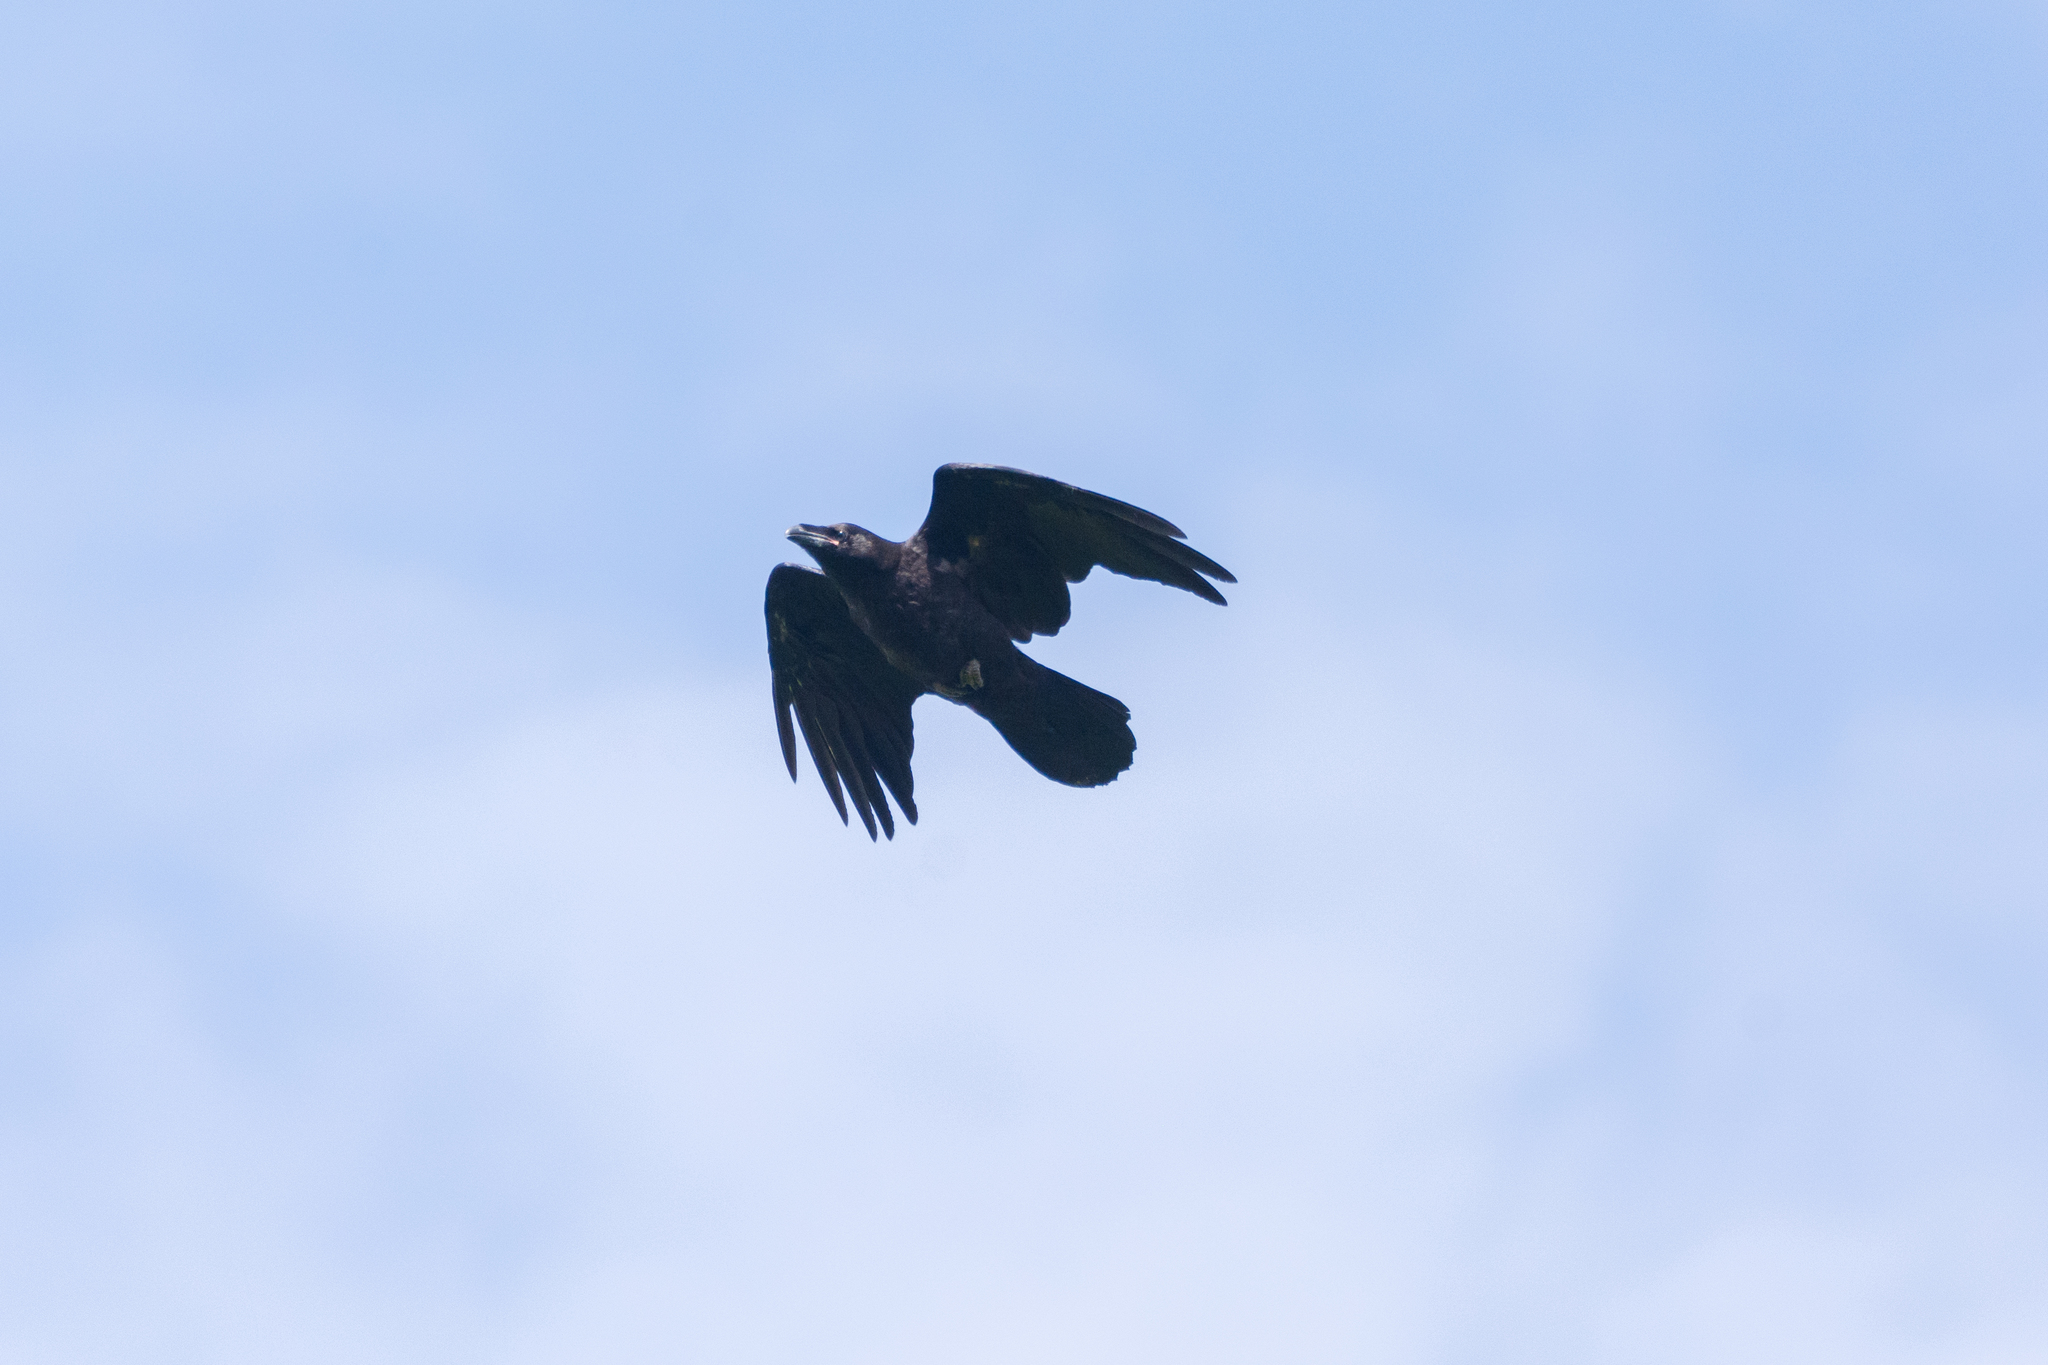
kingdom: Animalia
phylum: Chordata
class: Aves
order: Passeriformes
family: Corvidae
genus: Corvus
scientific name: Corvus corax
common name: Common raven
